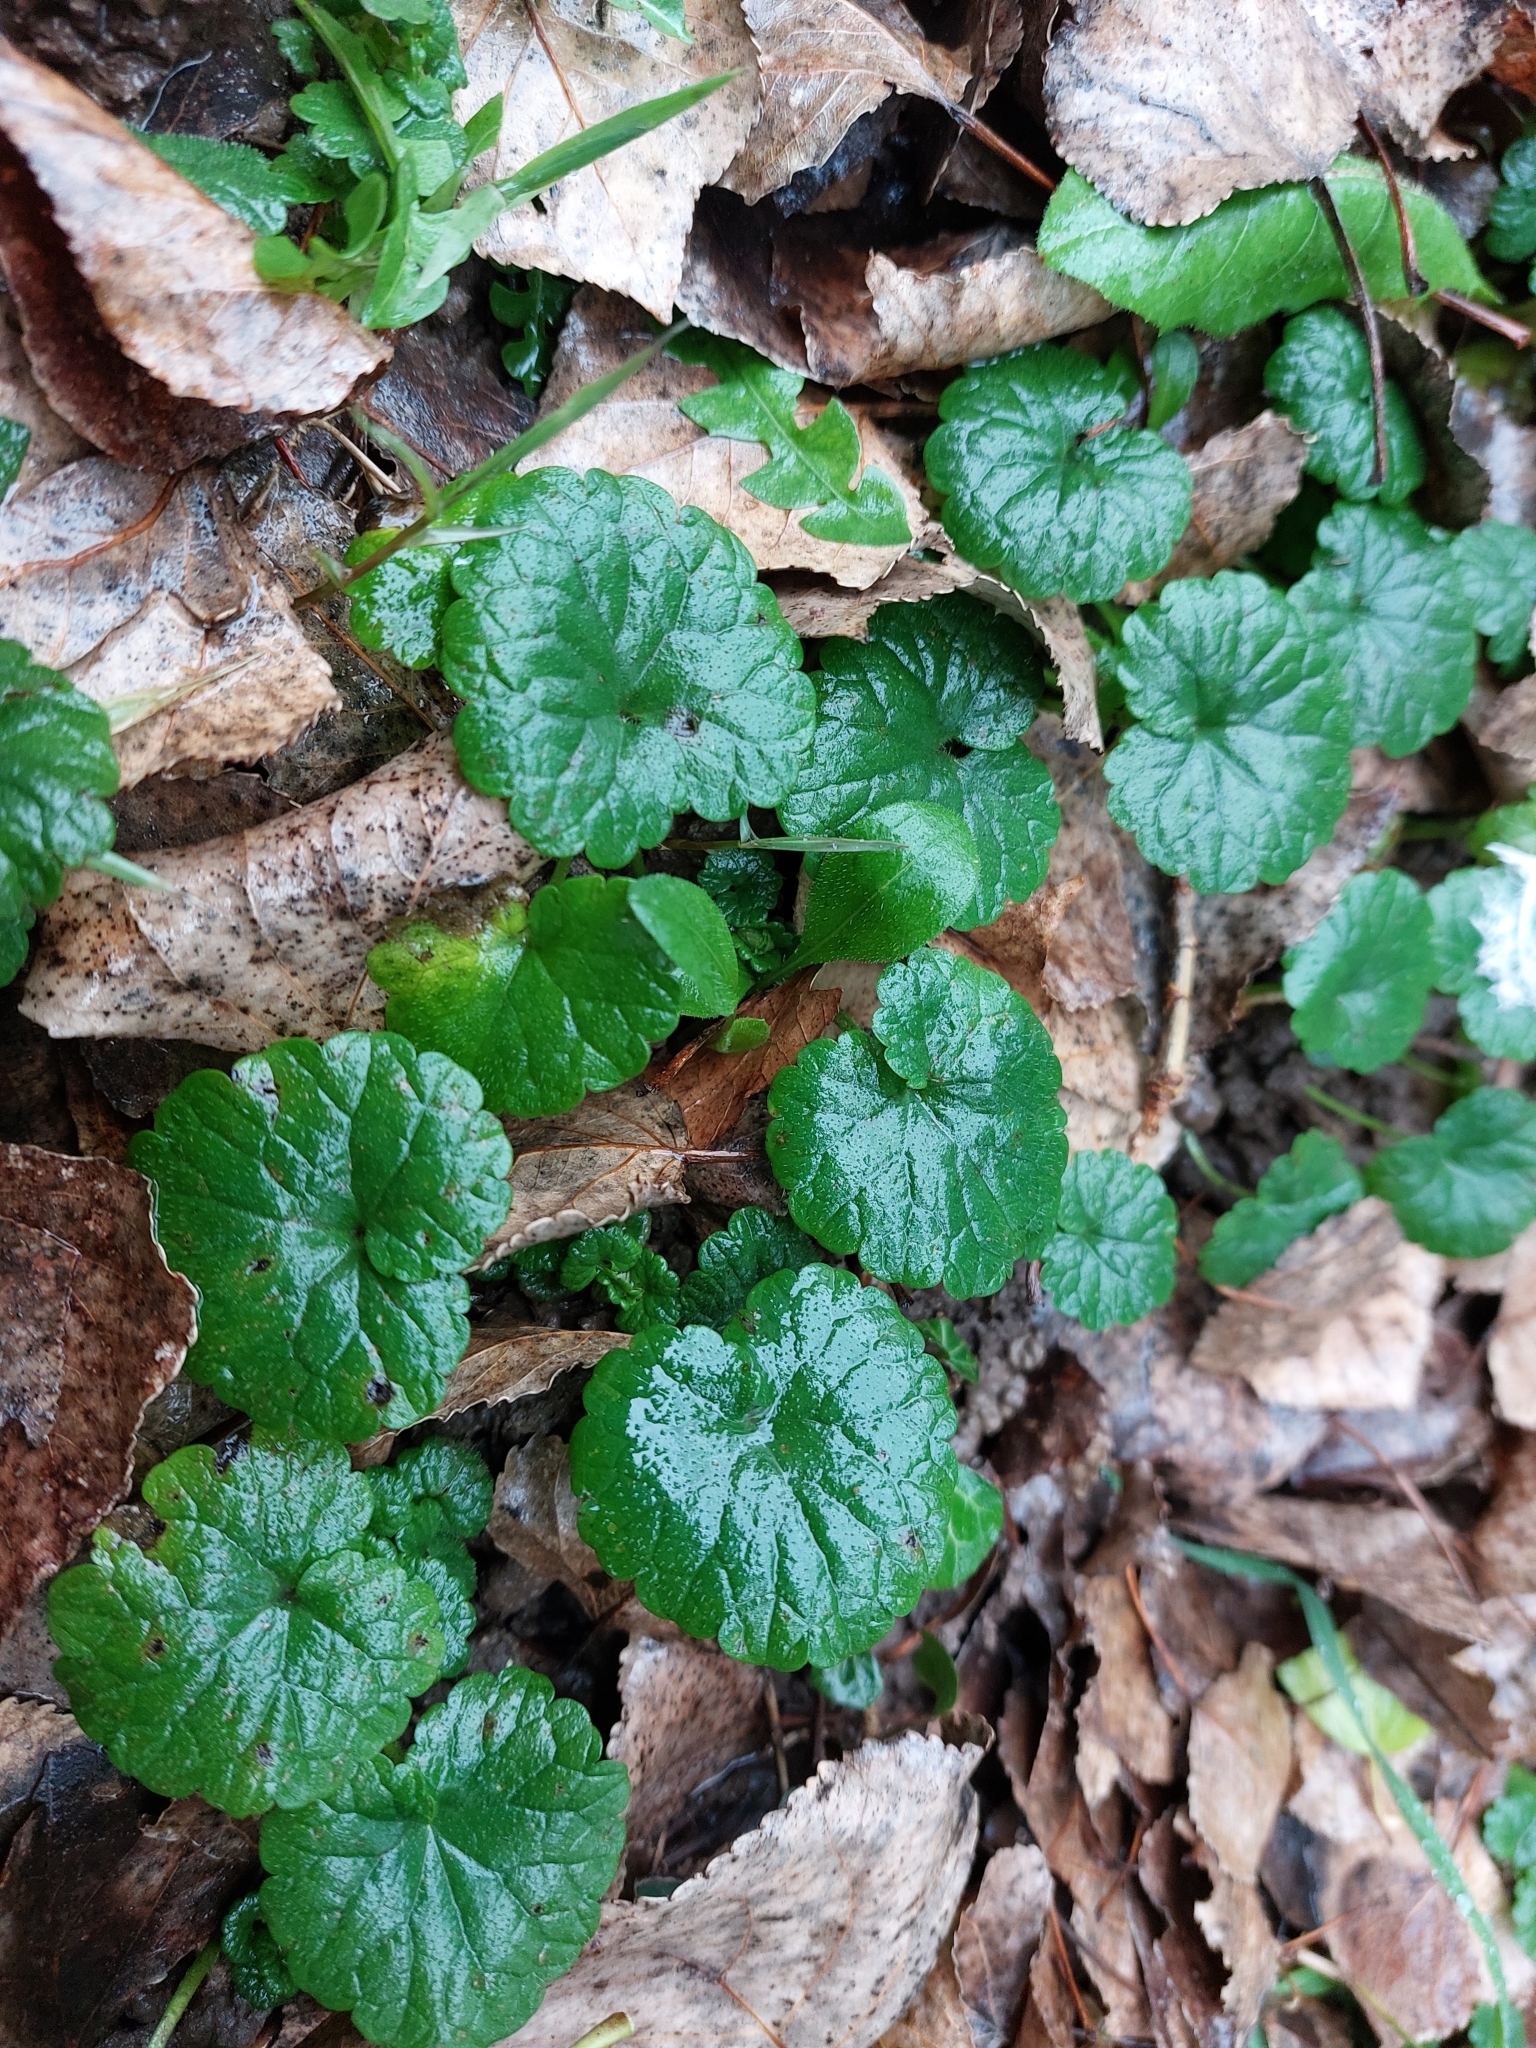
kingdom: Plantae
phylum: Tracheophyta
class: Magnoliopsida
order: Lamiales
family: Lamiaceae
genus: Glechoma
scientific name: Glechoma hederacea
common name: Ground ivy
